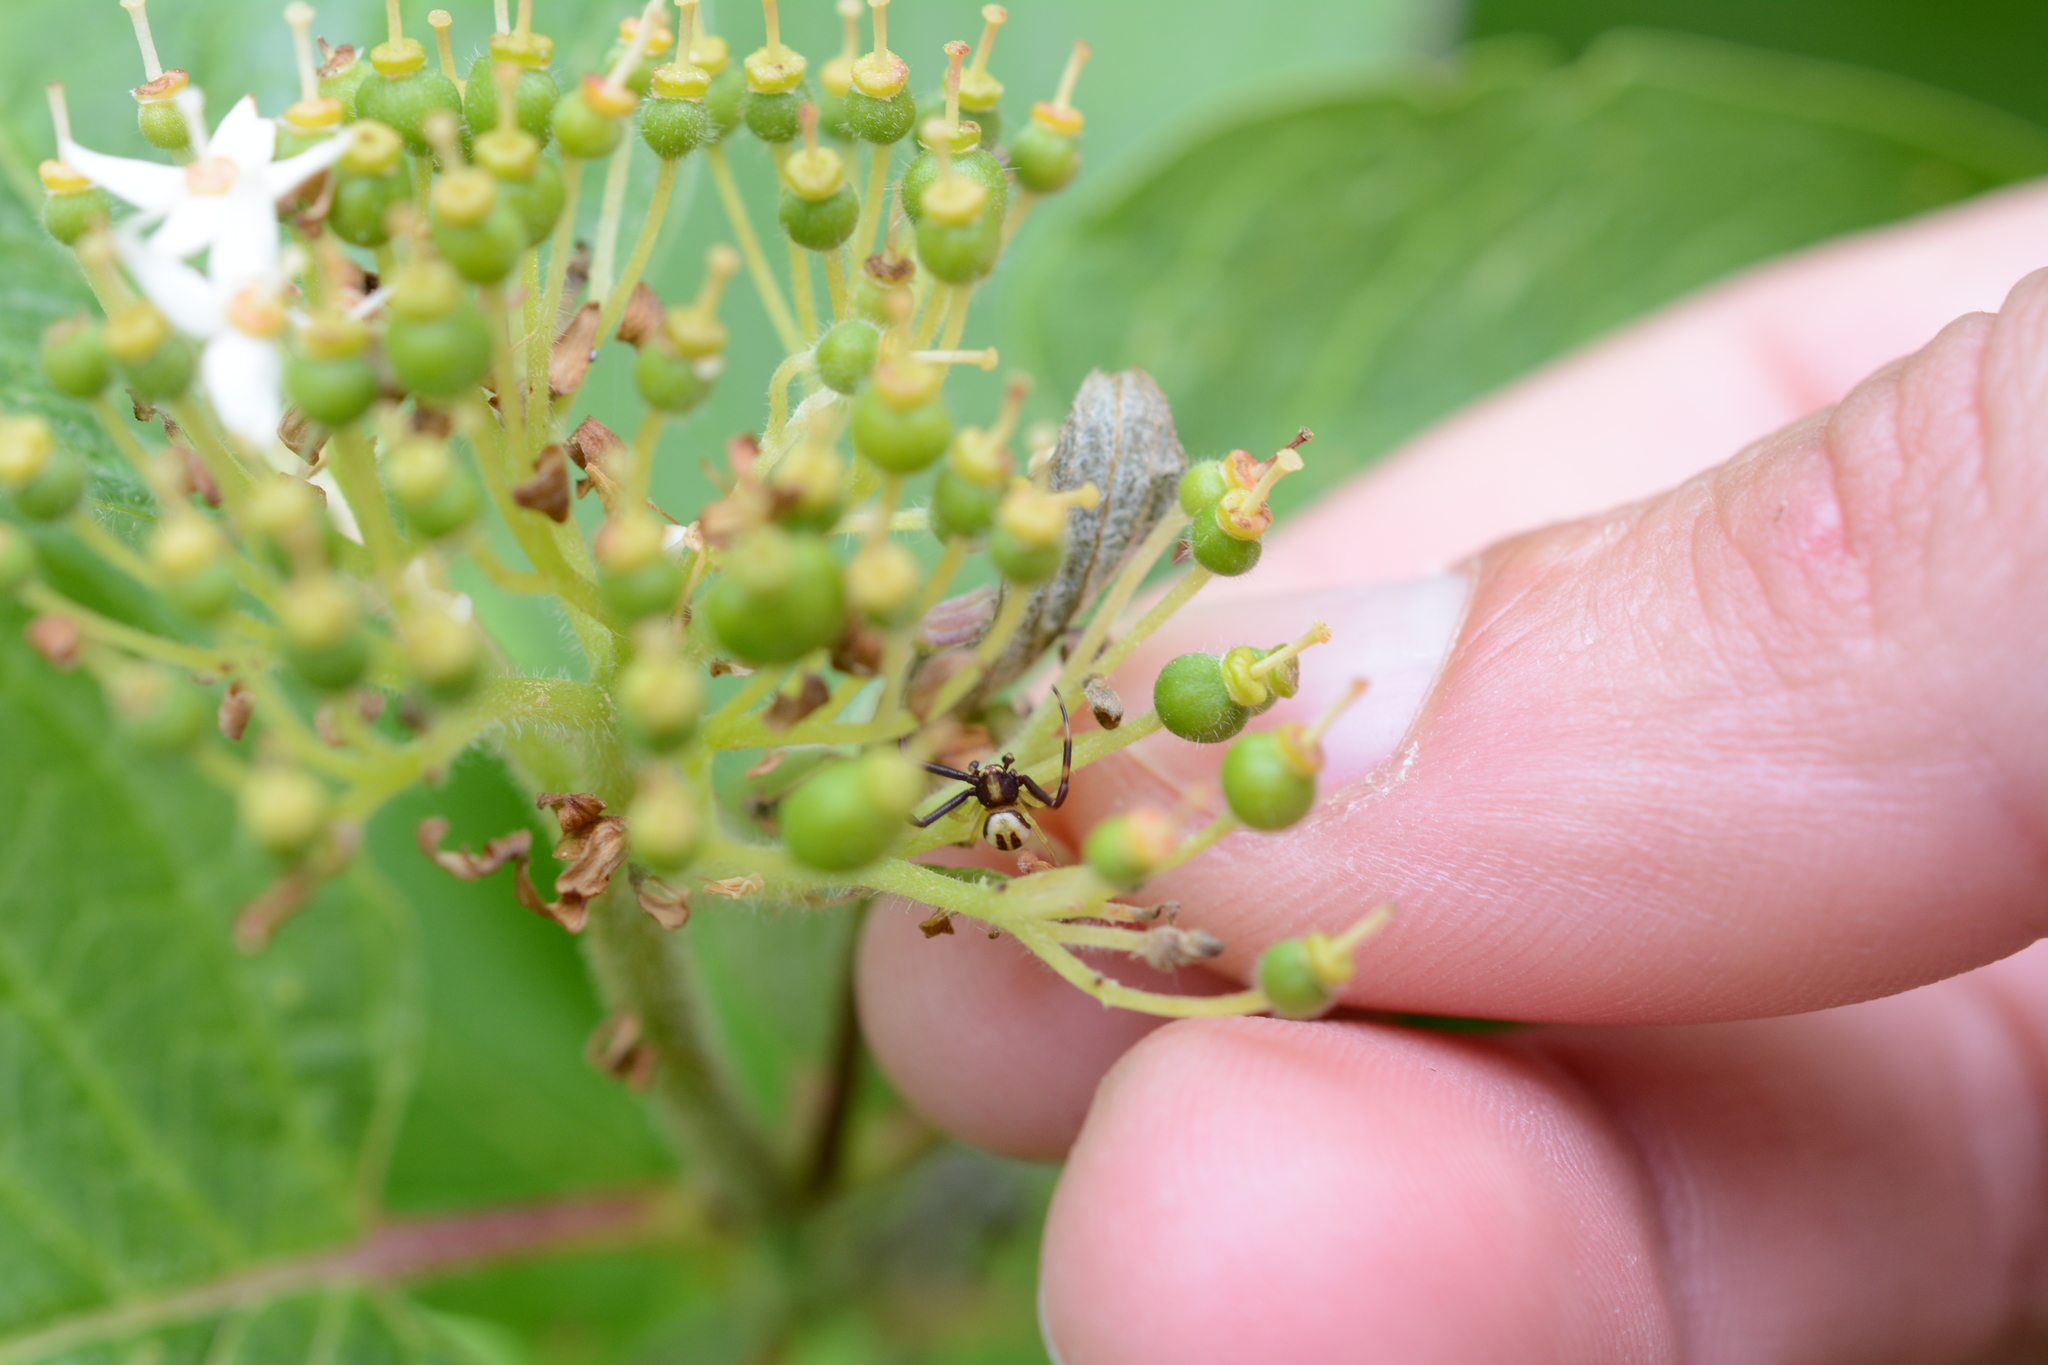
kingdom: Animalia
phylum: Arthropoda
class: Arachnida
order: Araneae
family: Thomisidae
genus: Misumena
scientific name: Misumena vatia
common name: Goldenrod crab spider
